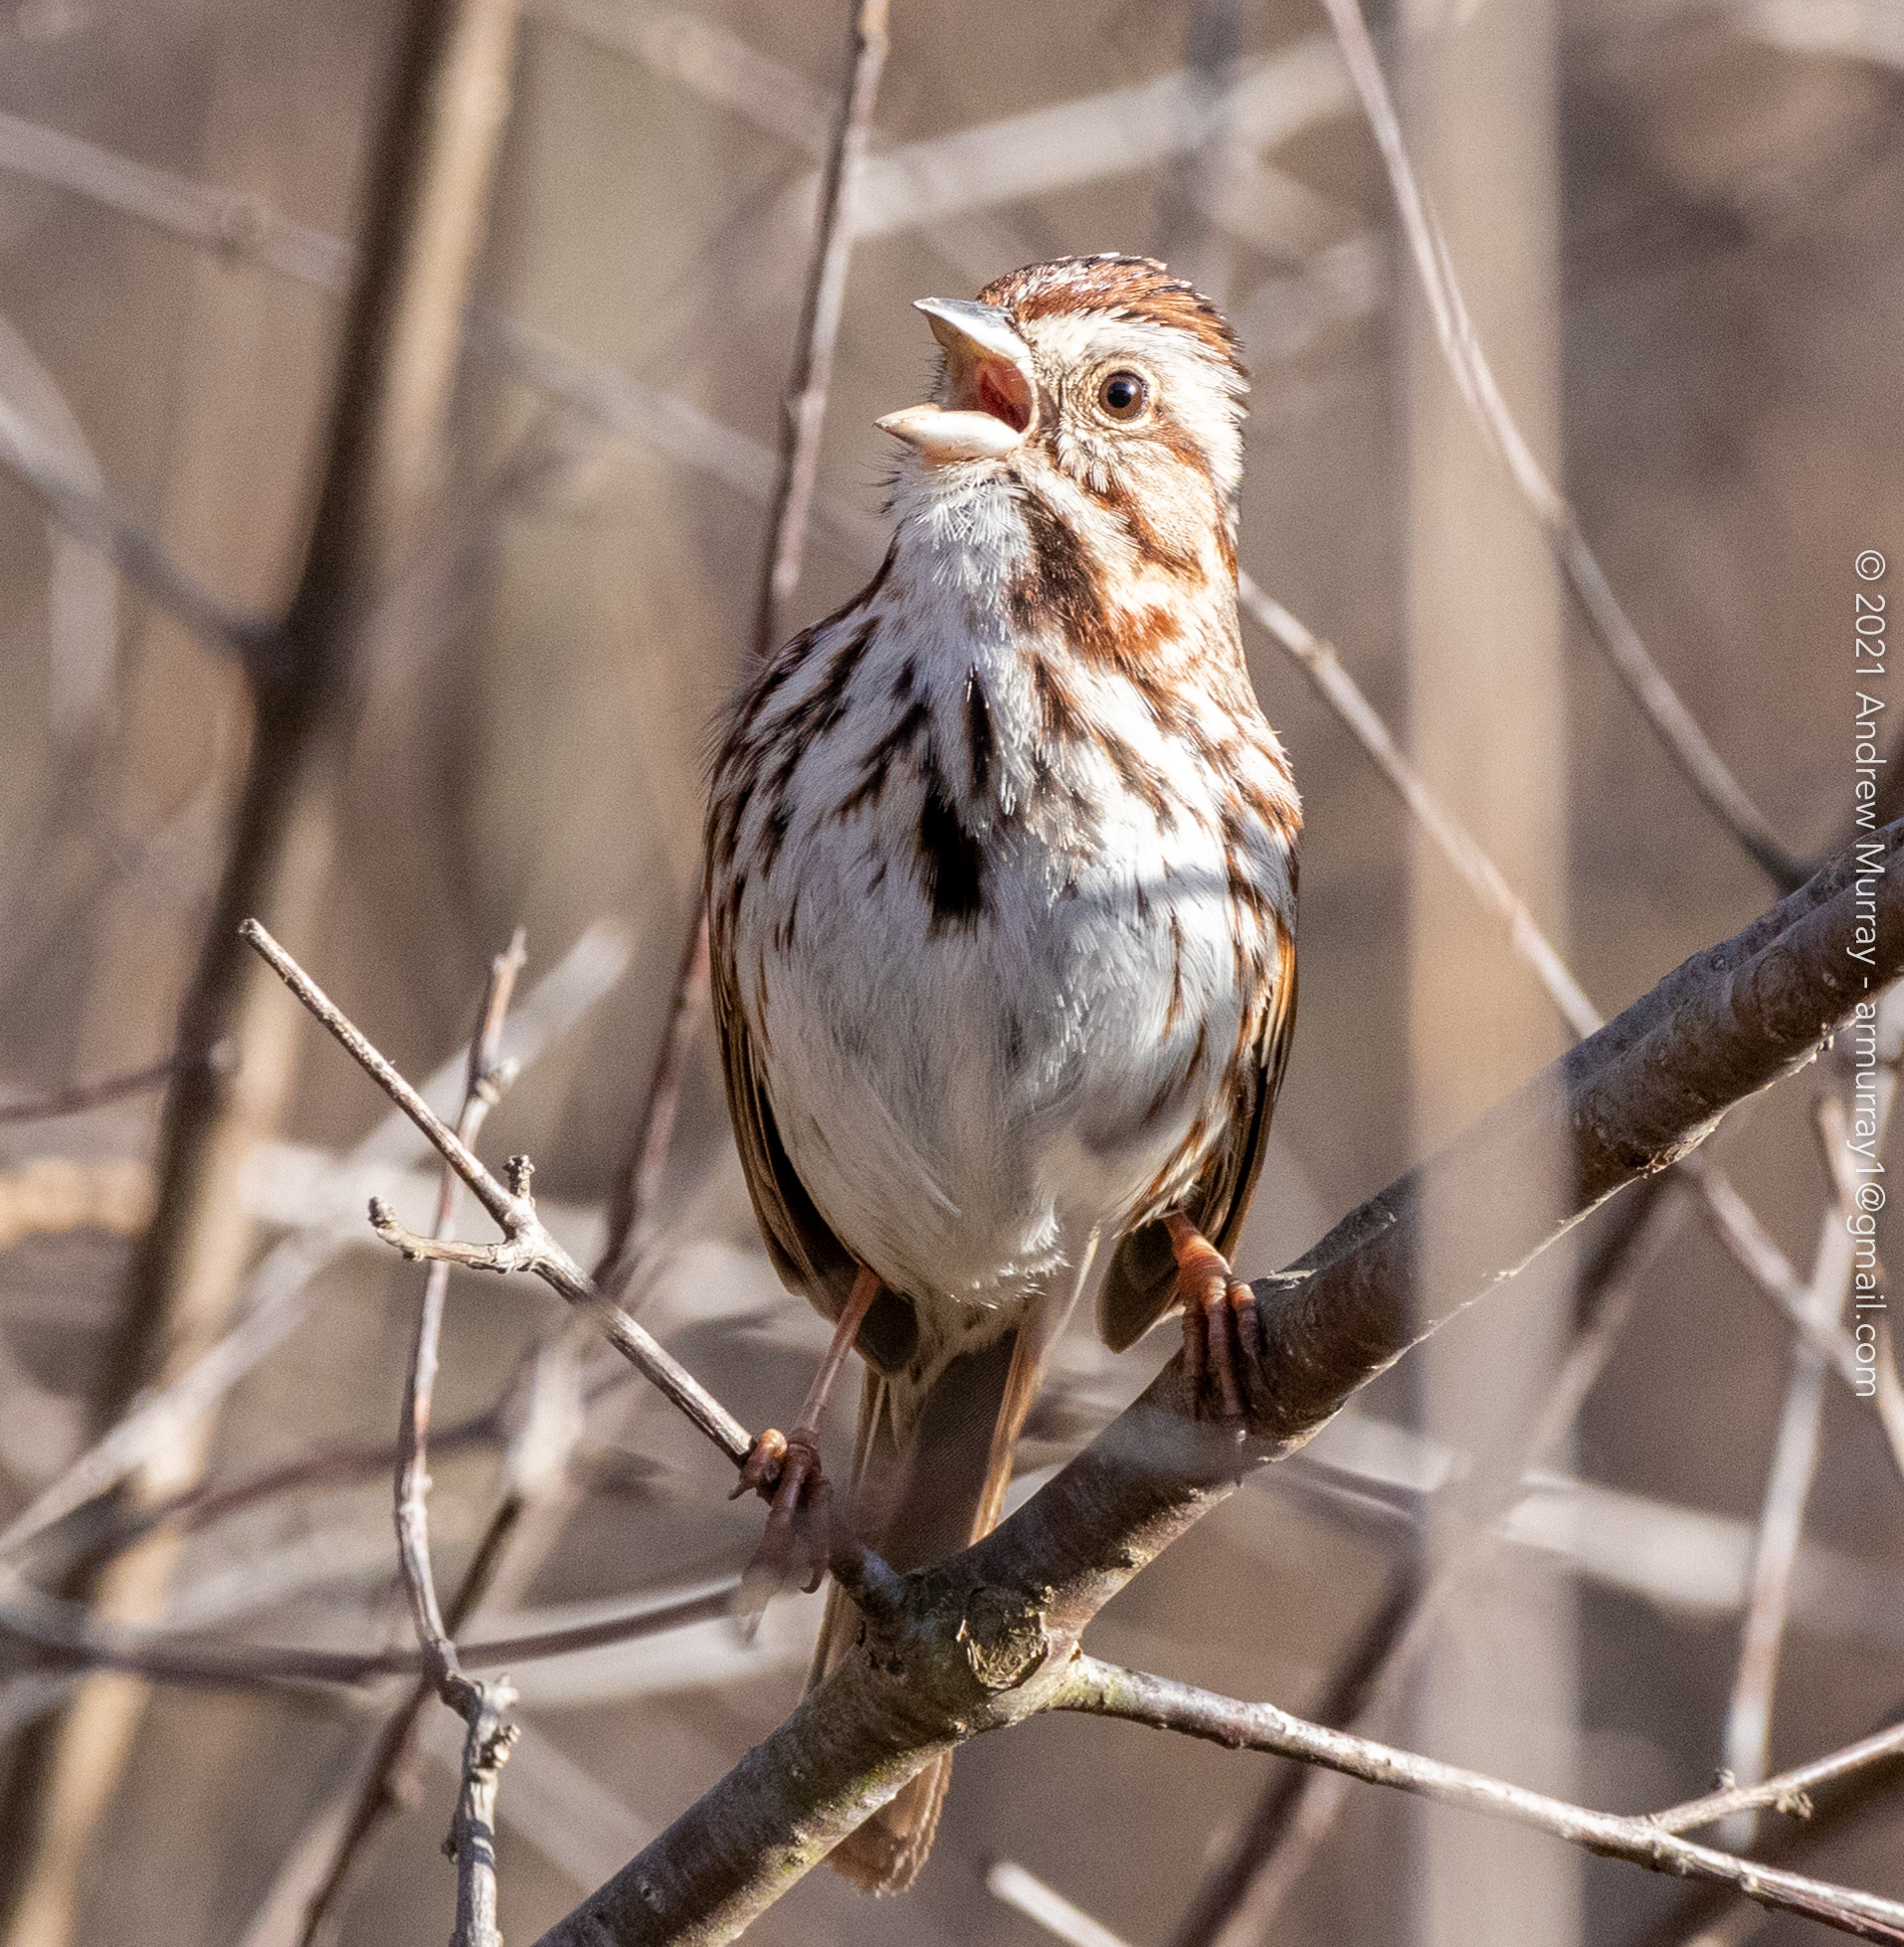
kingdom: Animalia
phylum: Chordata
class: Aves
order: Passeriformes
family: Passerellidae
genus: Melospiza
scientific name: Melospiza melodia
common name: Song sparrow
